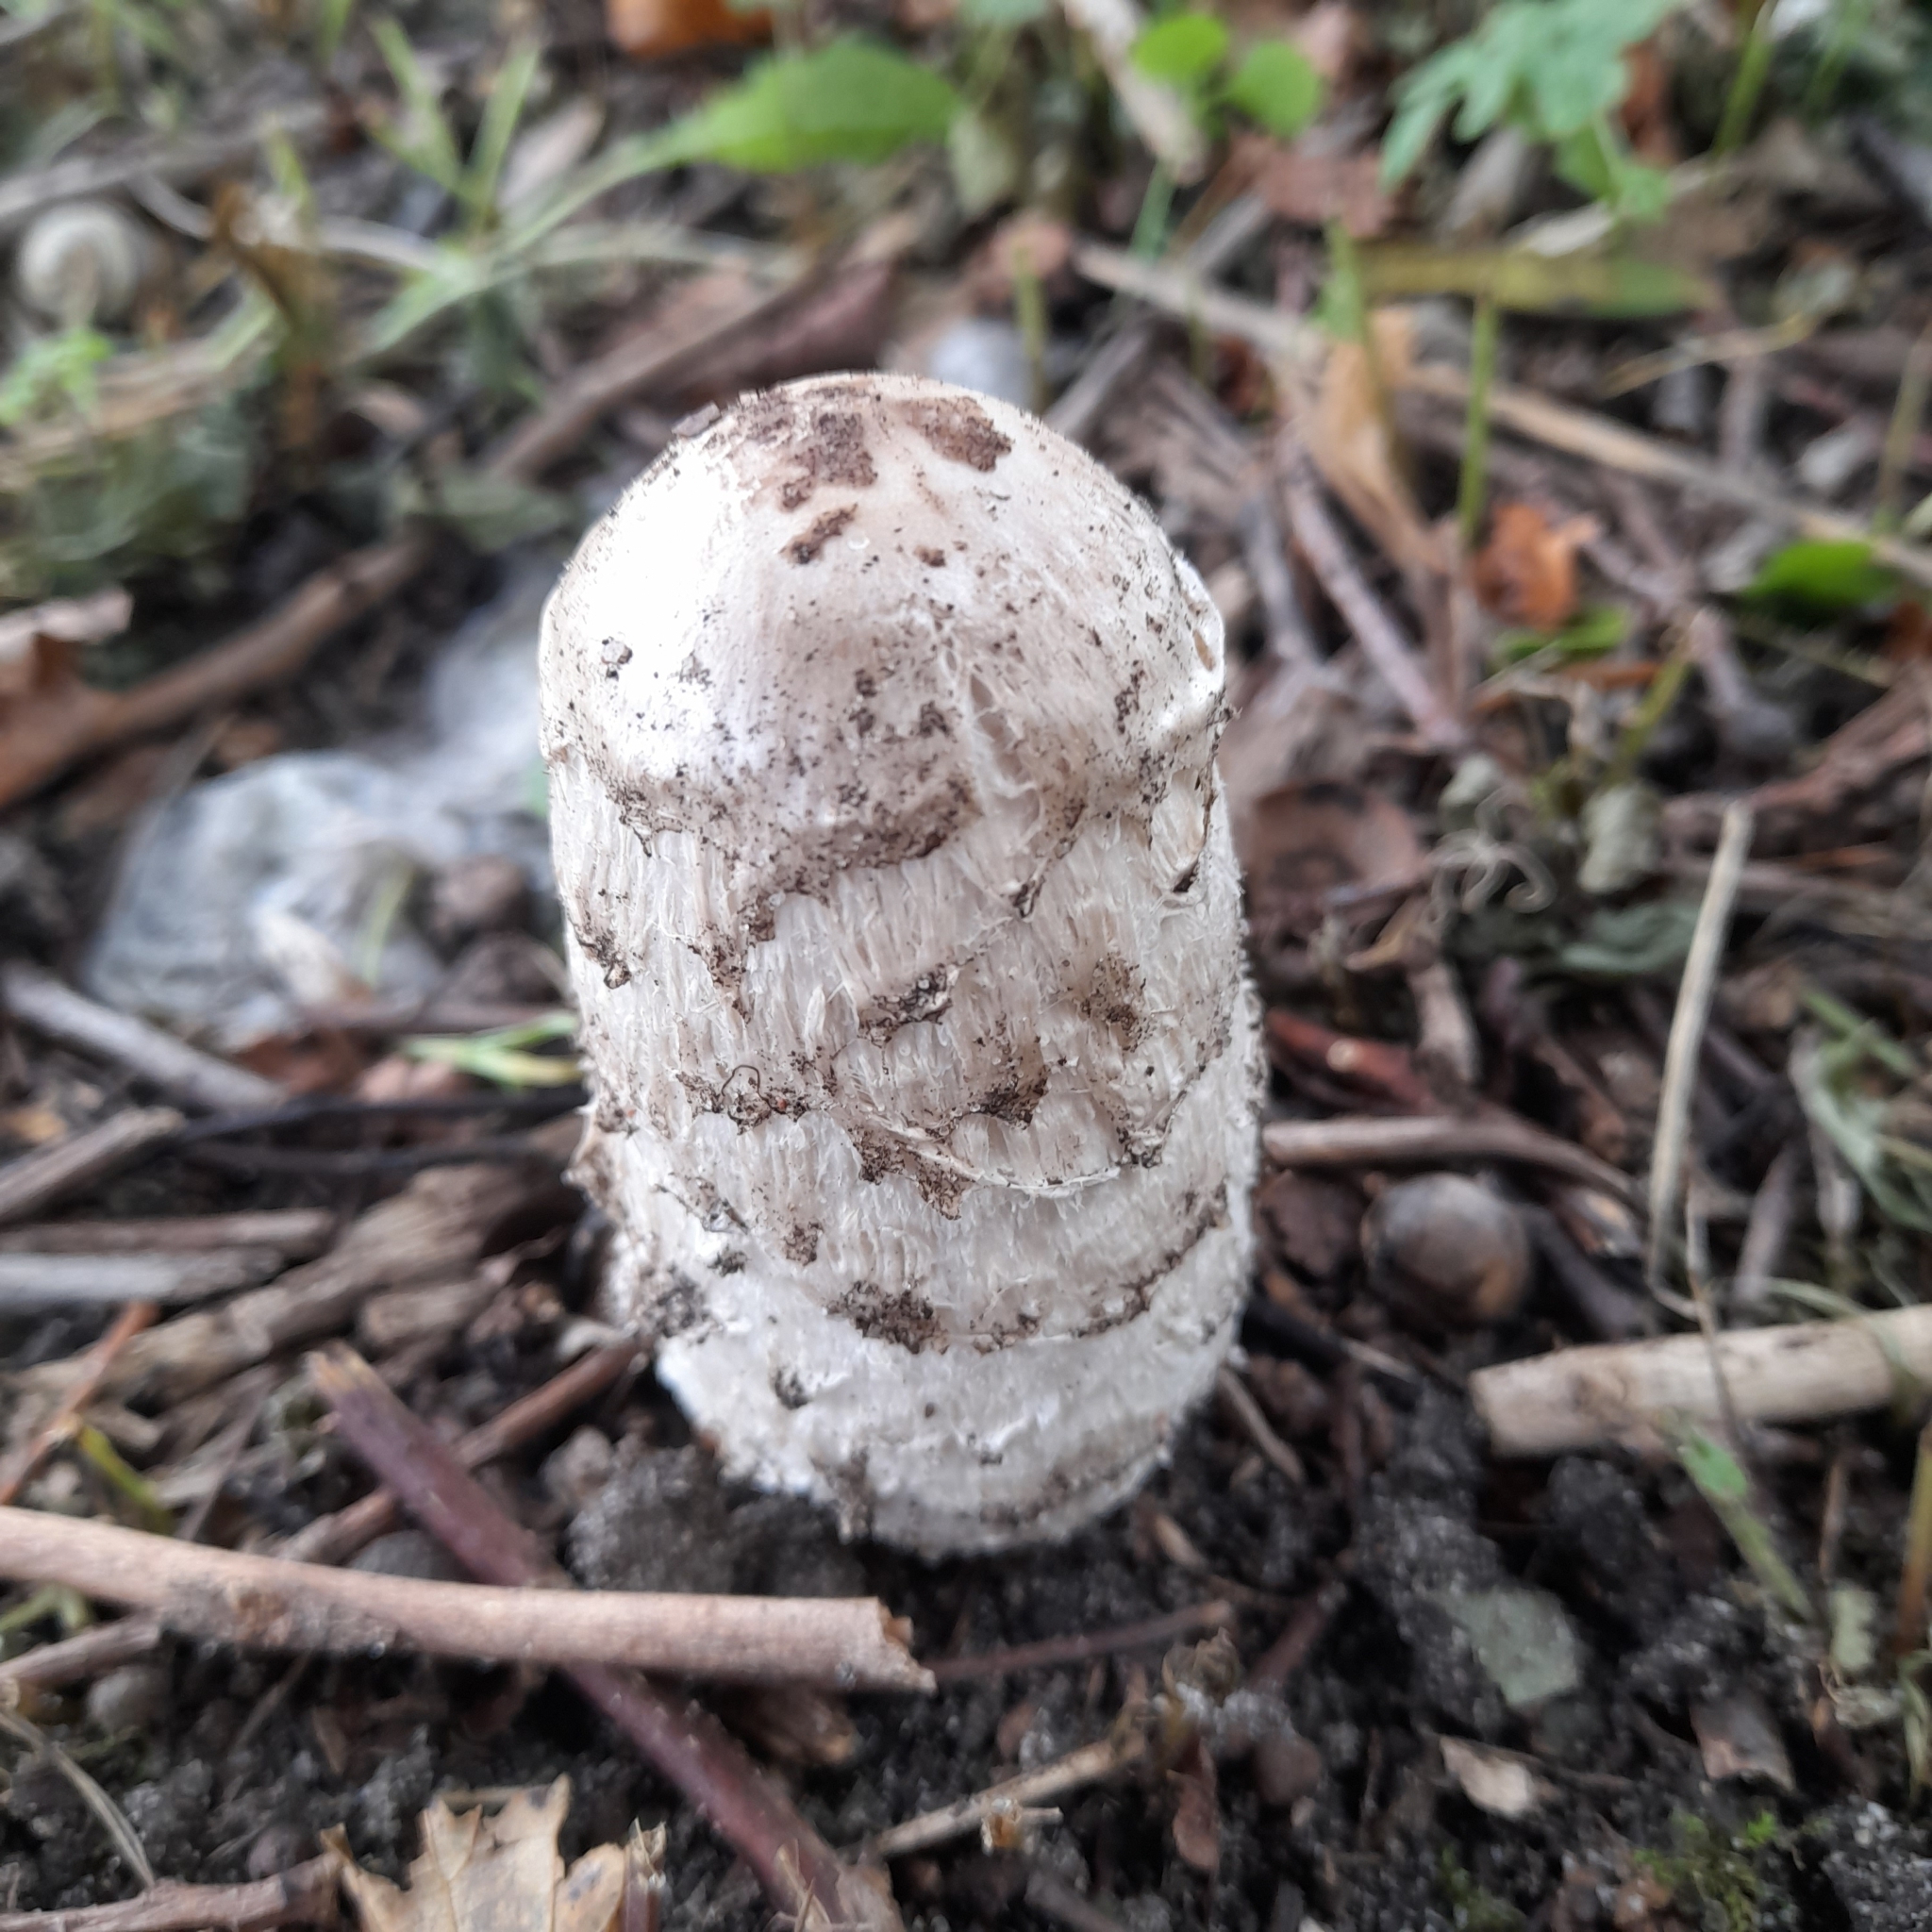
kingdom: Fungi
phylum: Basidiomycota
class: Agaricomycetes
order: Agaricales
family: Agaricaceae
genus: Coprinus
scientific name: Coprinus comatus
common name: Lawyer's wig
